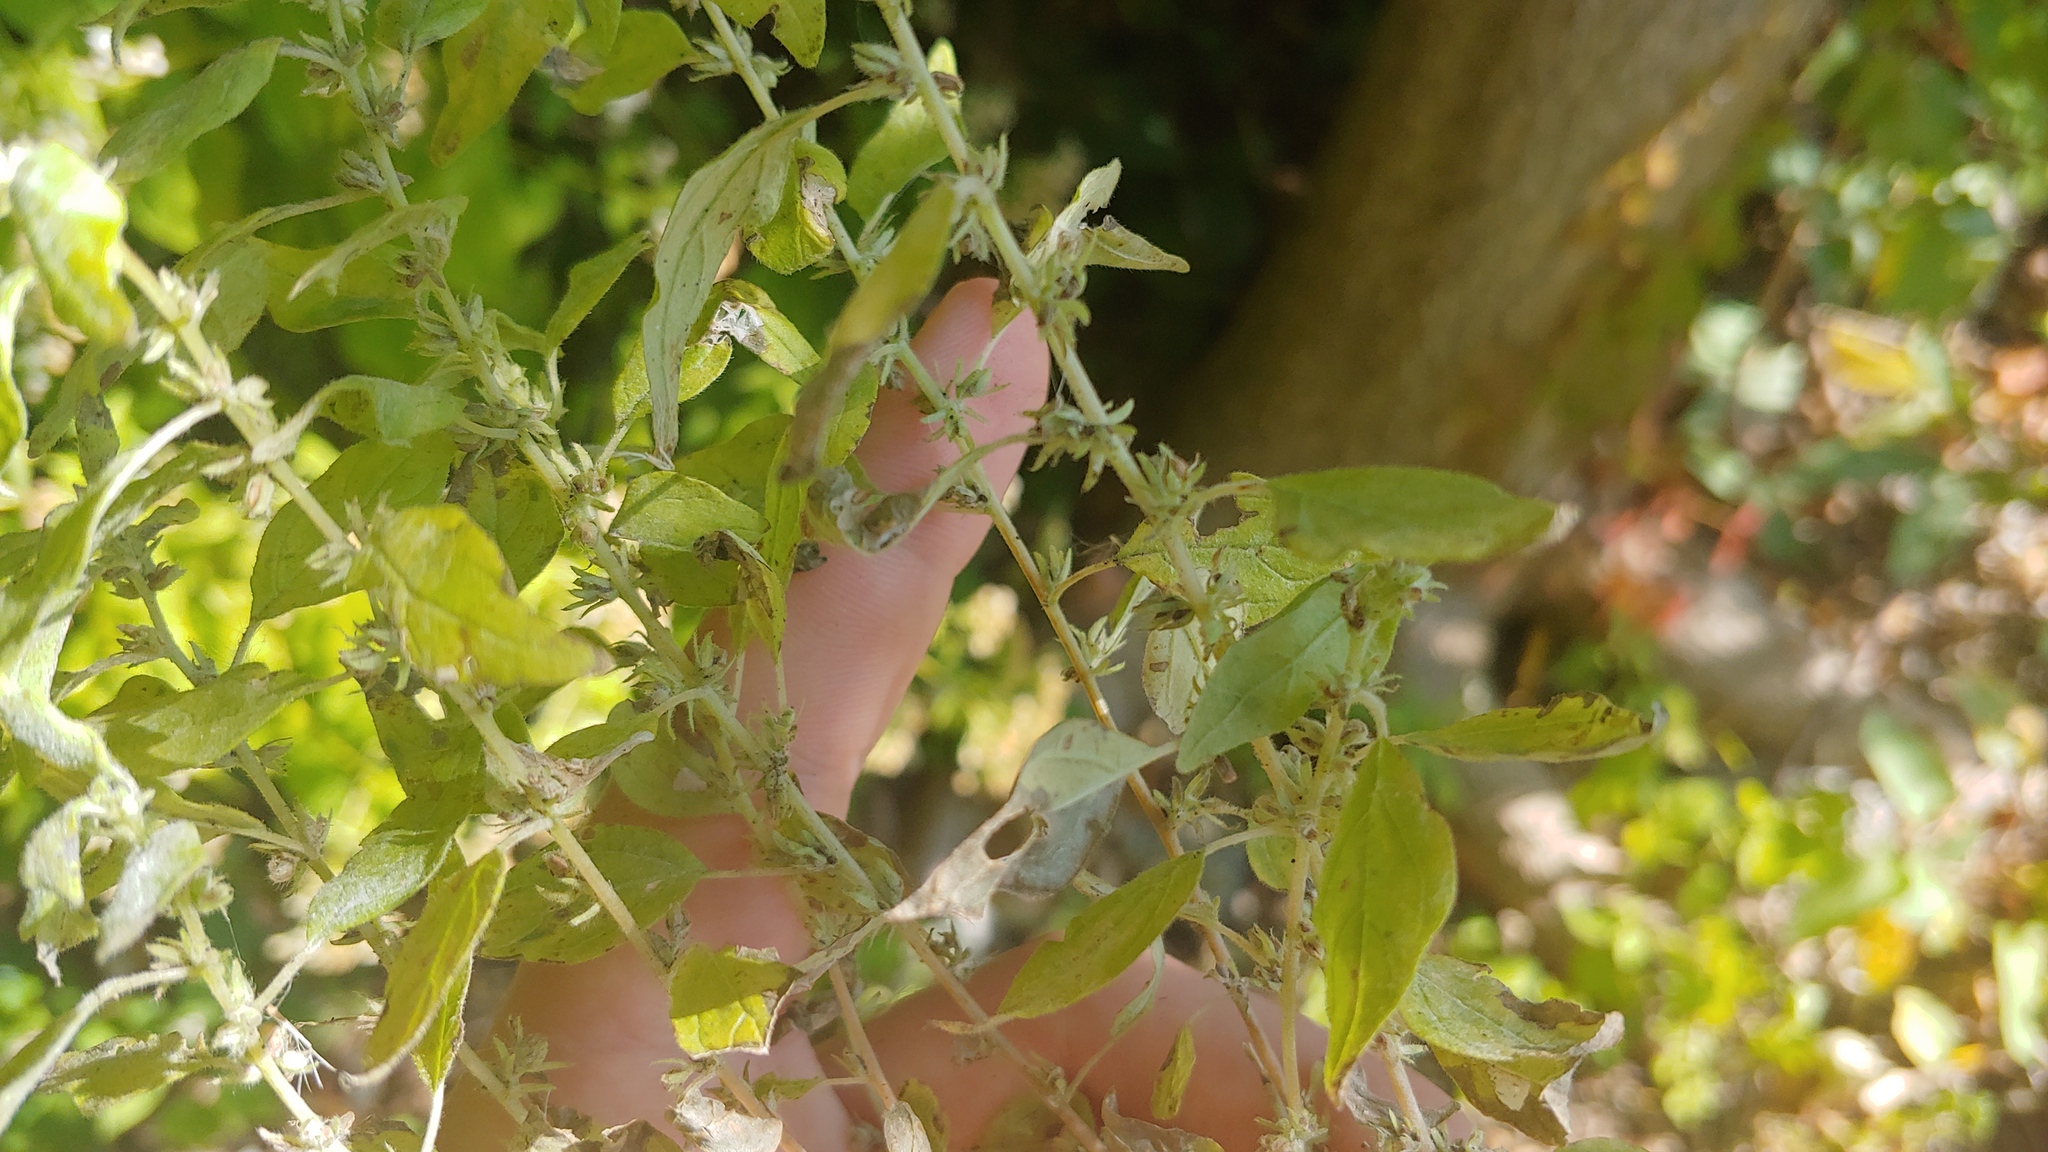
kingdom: Plantae
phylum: Tracheophyta
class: Magnoliopsida
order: Rosales
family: Urticaceae
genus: Parietaria
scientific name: Parietaria pensylvanica
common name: Pennsylvania pellitory
